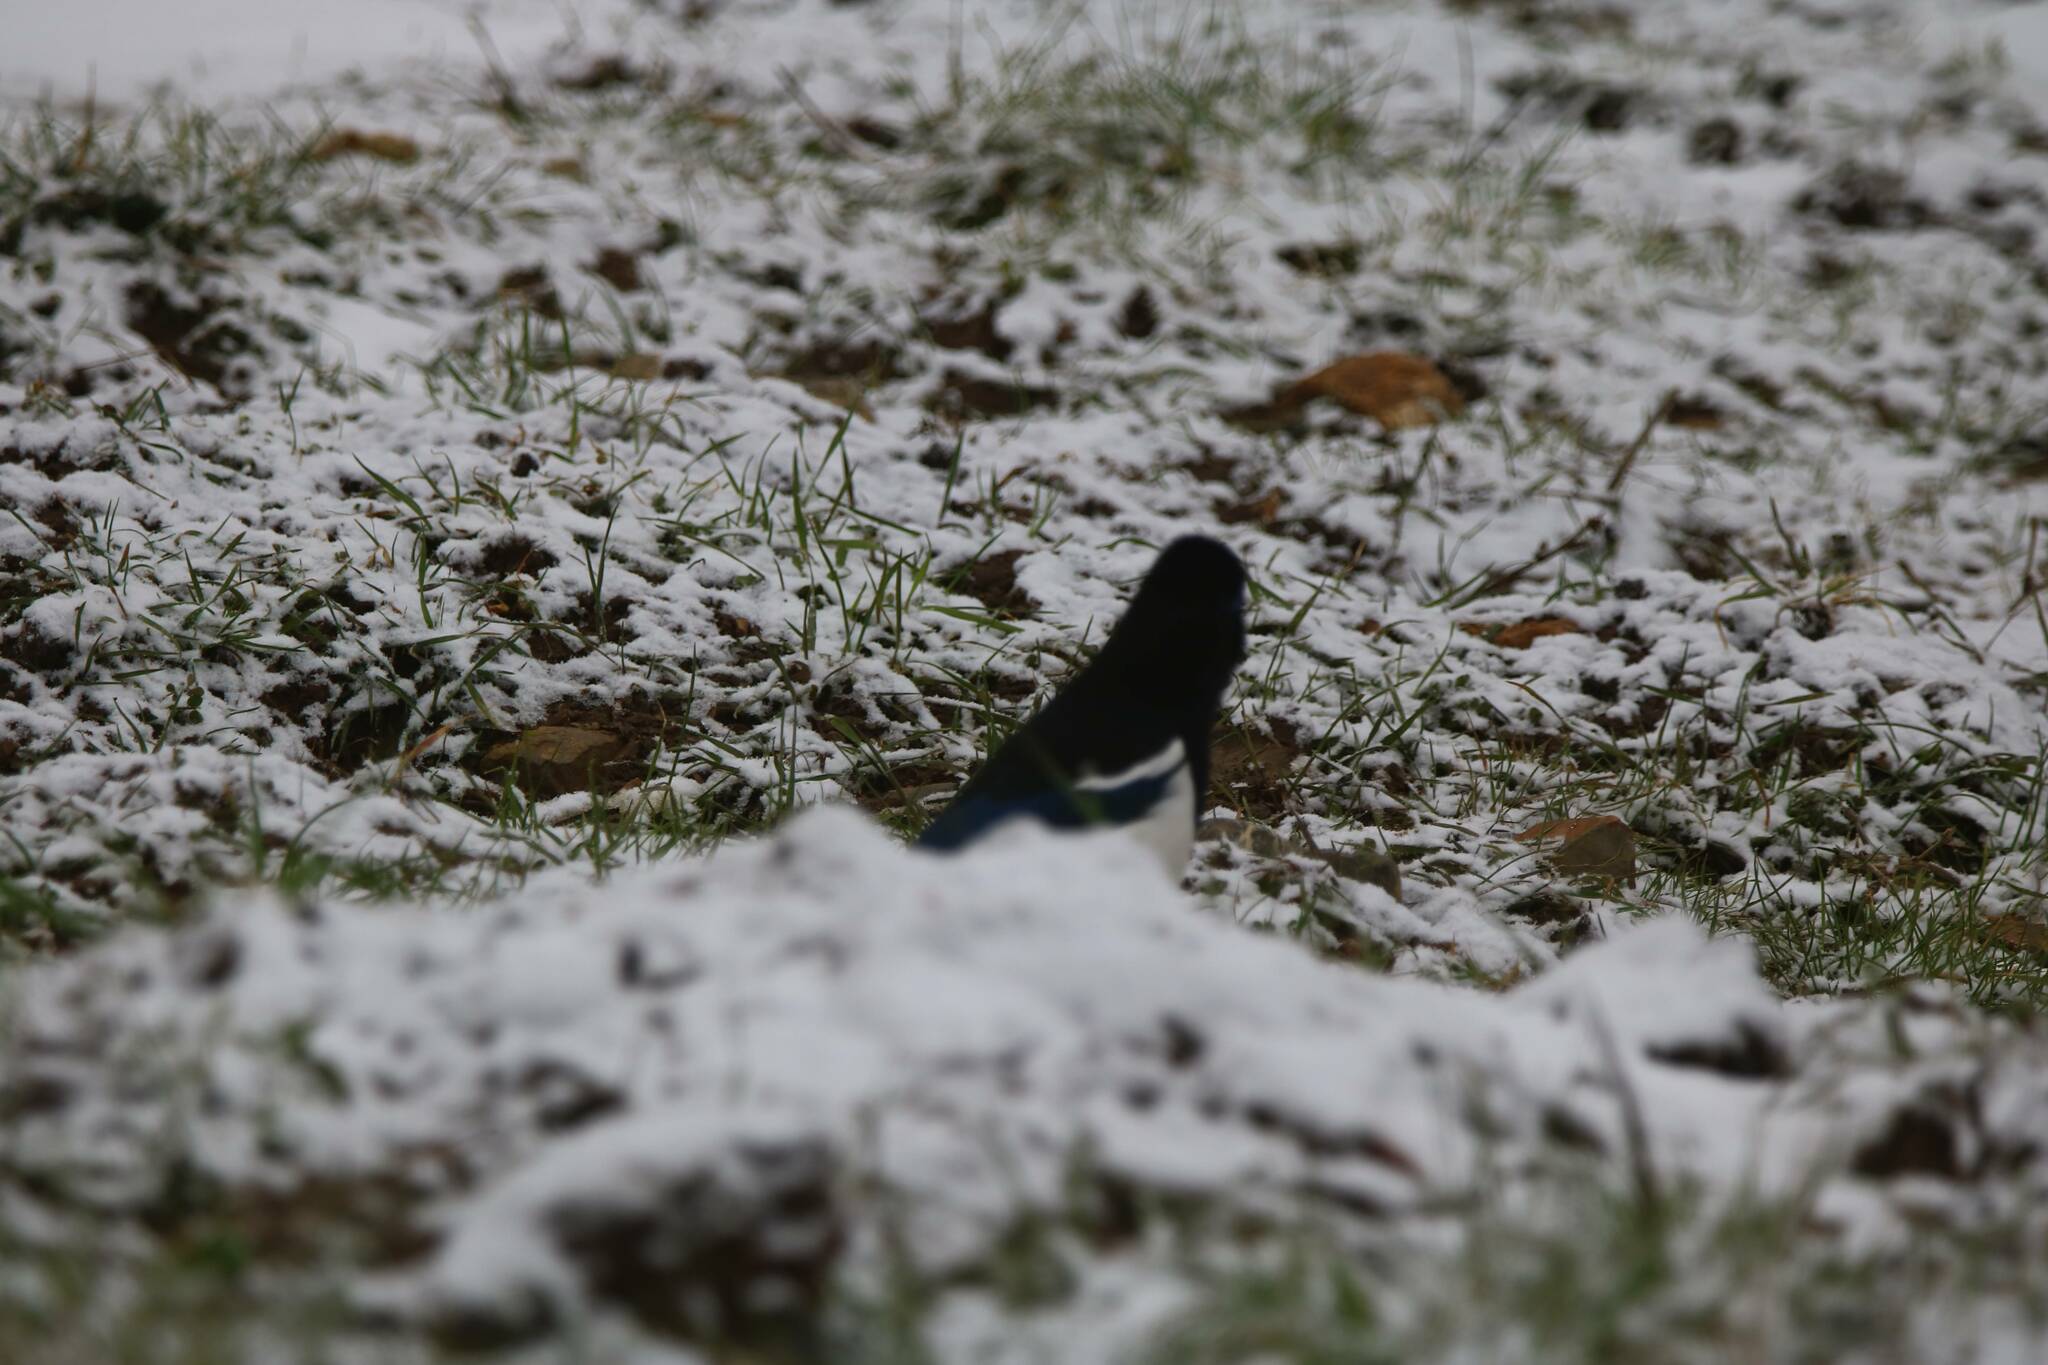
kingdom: Animalia
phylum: Chordata
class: Aves
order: Passeriformes
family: Corvidae
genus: Pica
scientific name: Pica mauritanica
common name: Maghreb magpie
